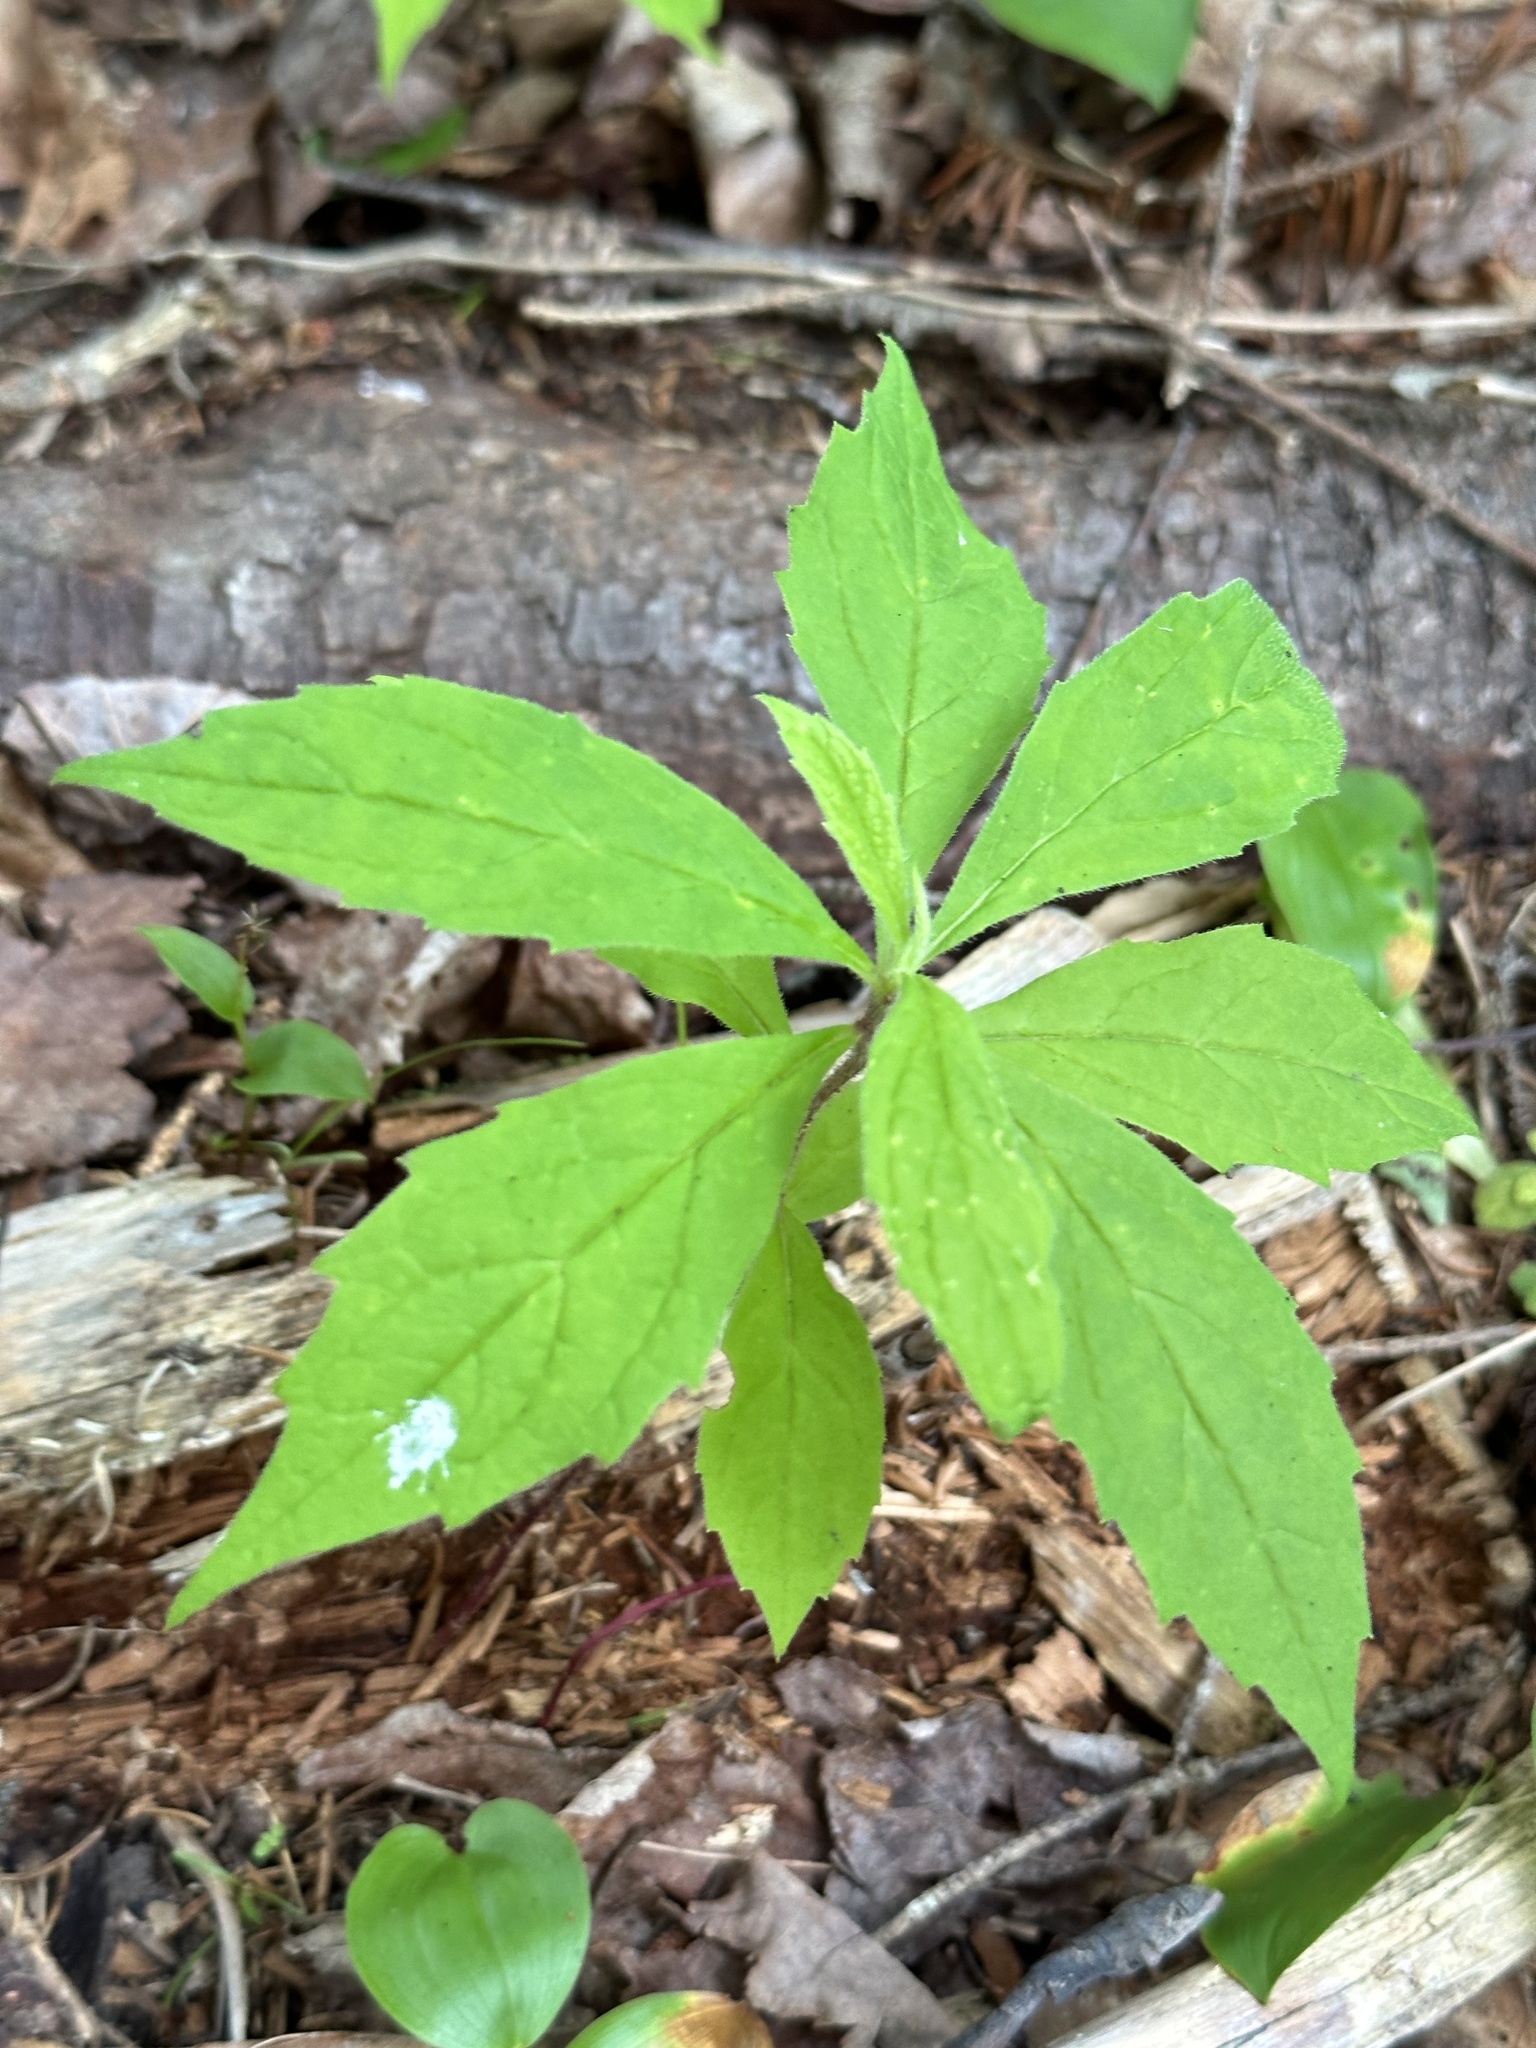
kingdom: Plantae
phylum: Tracheophyta
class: Magnoliopsida
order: Asterales
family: Asteraceae
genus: Oclemena
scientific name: Oclemena acuminata
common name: Mountain aster
